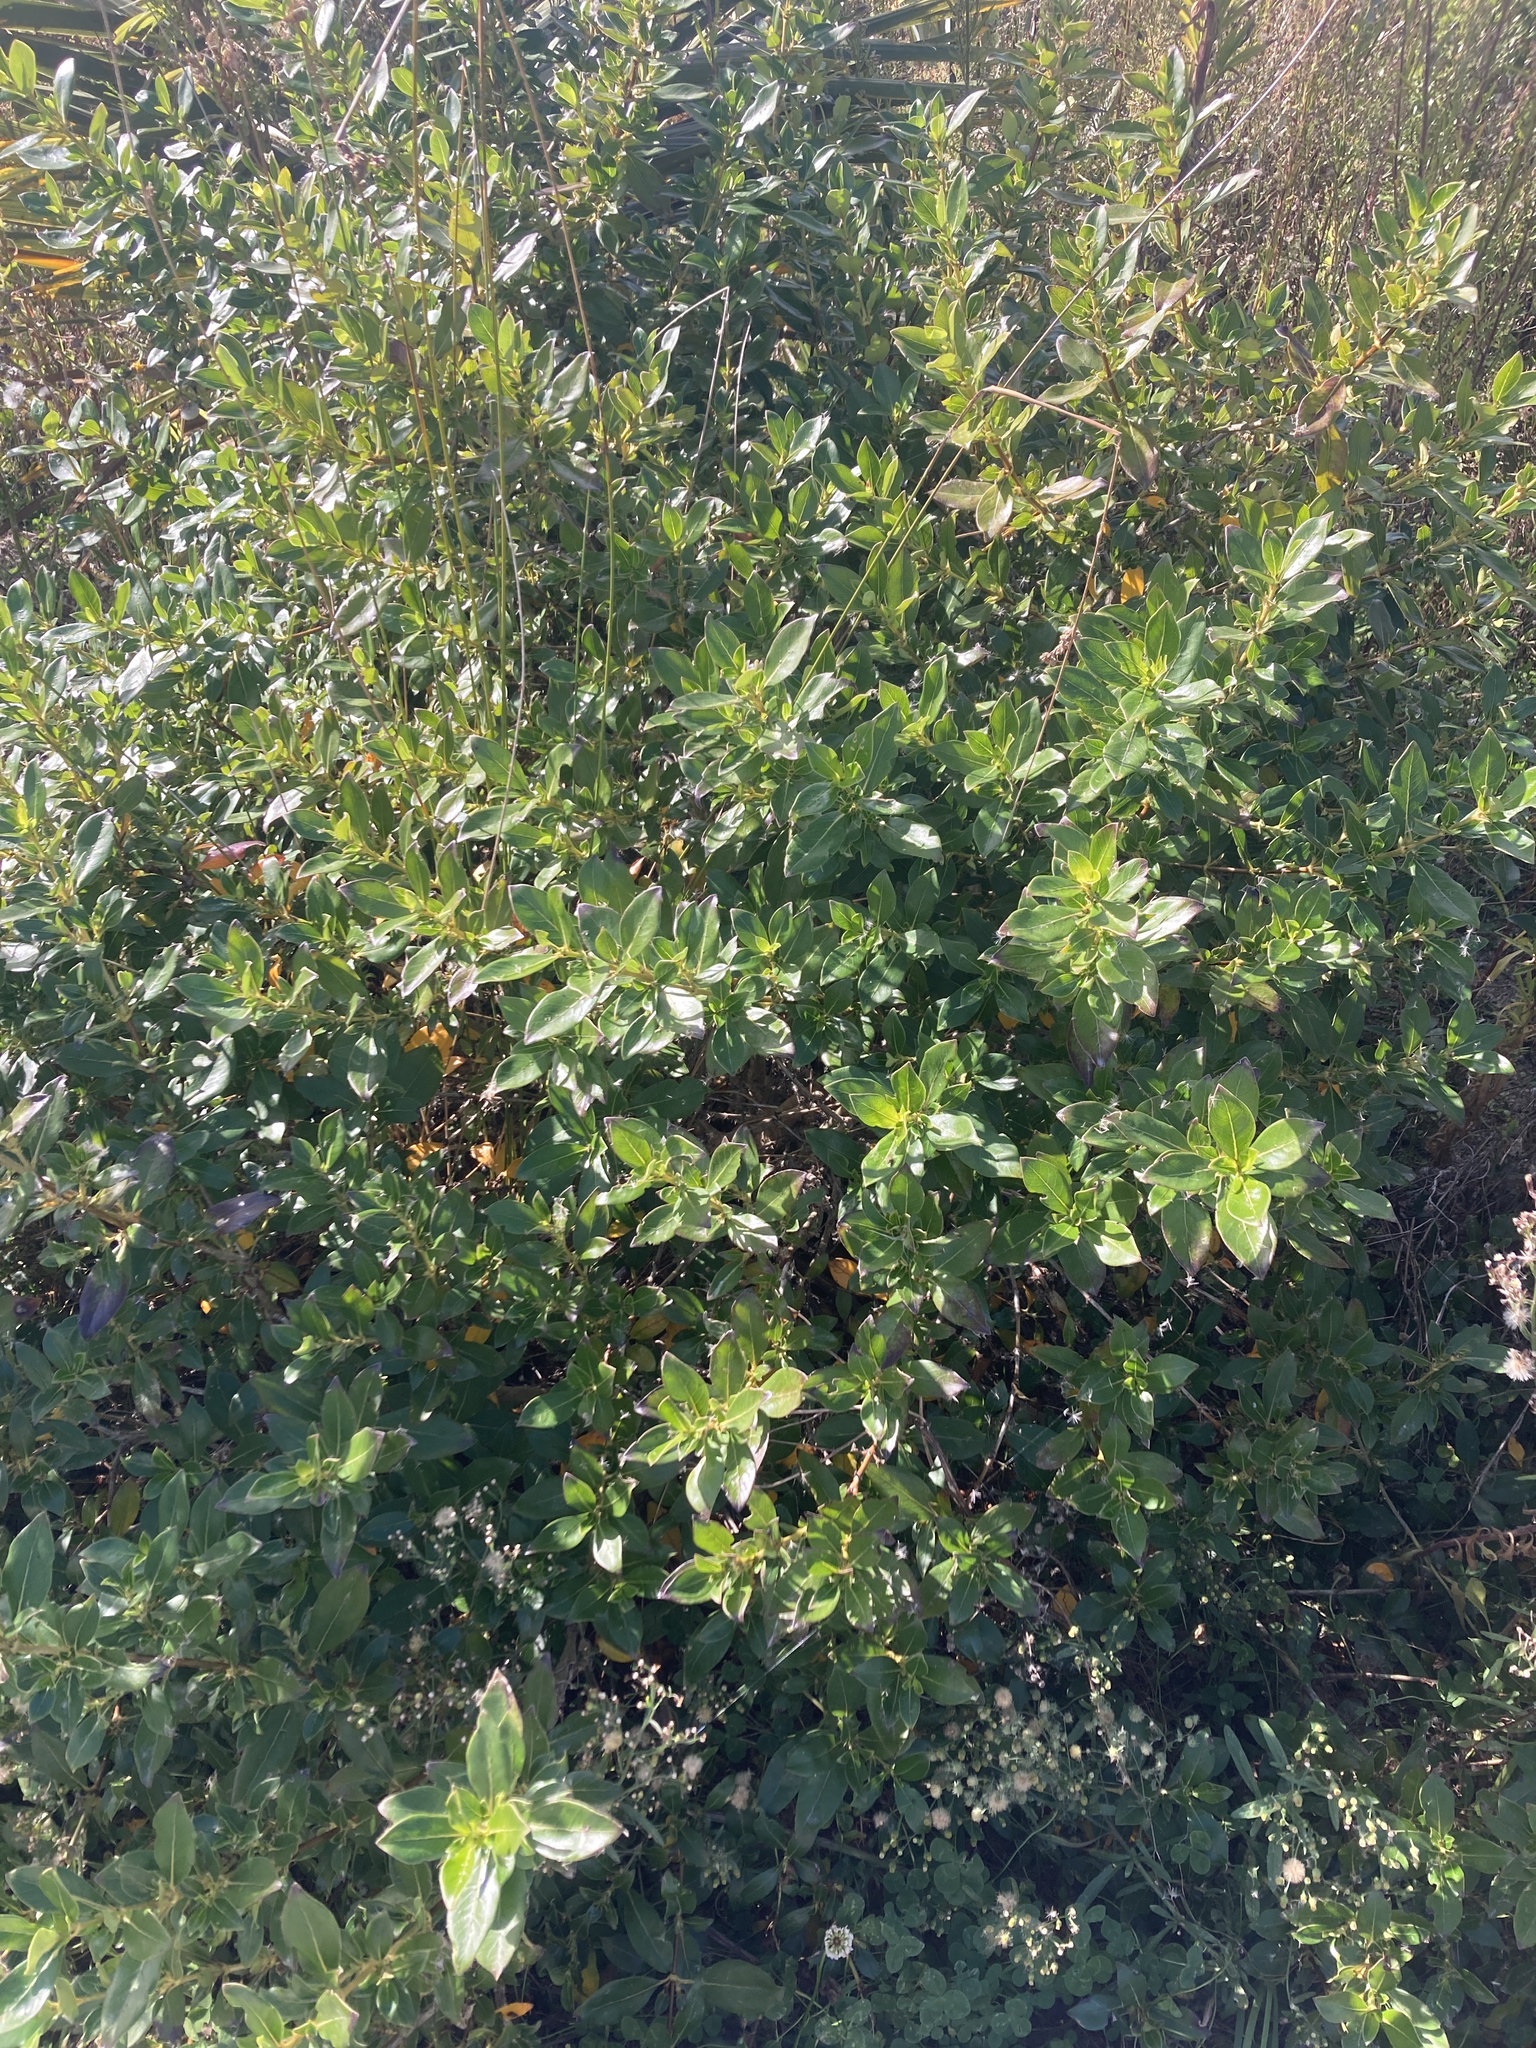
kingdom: Plantae
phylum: Tracheophyta
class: Magnoliopsida
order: Gentianales
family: Rubiaceae
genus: Coprosma
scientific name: Coprosma robusta
